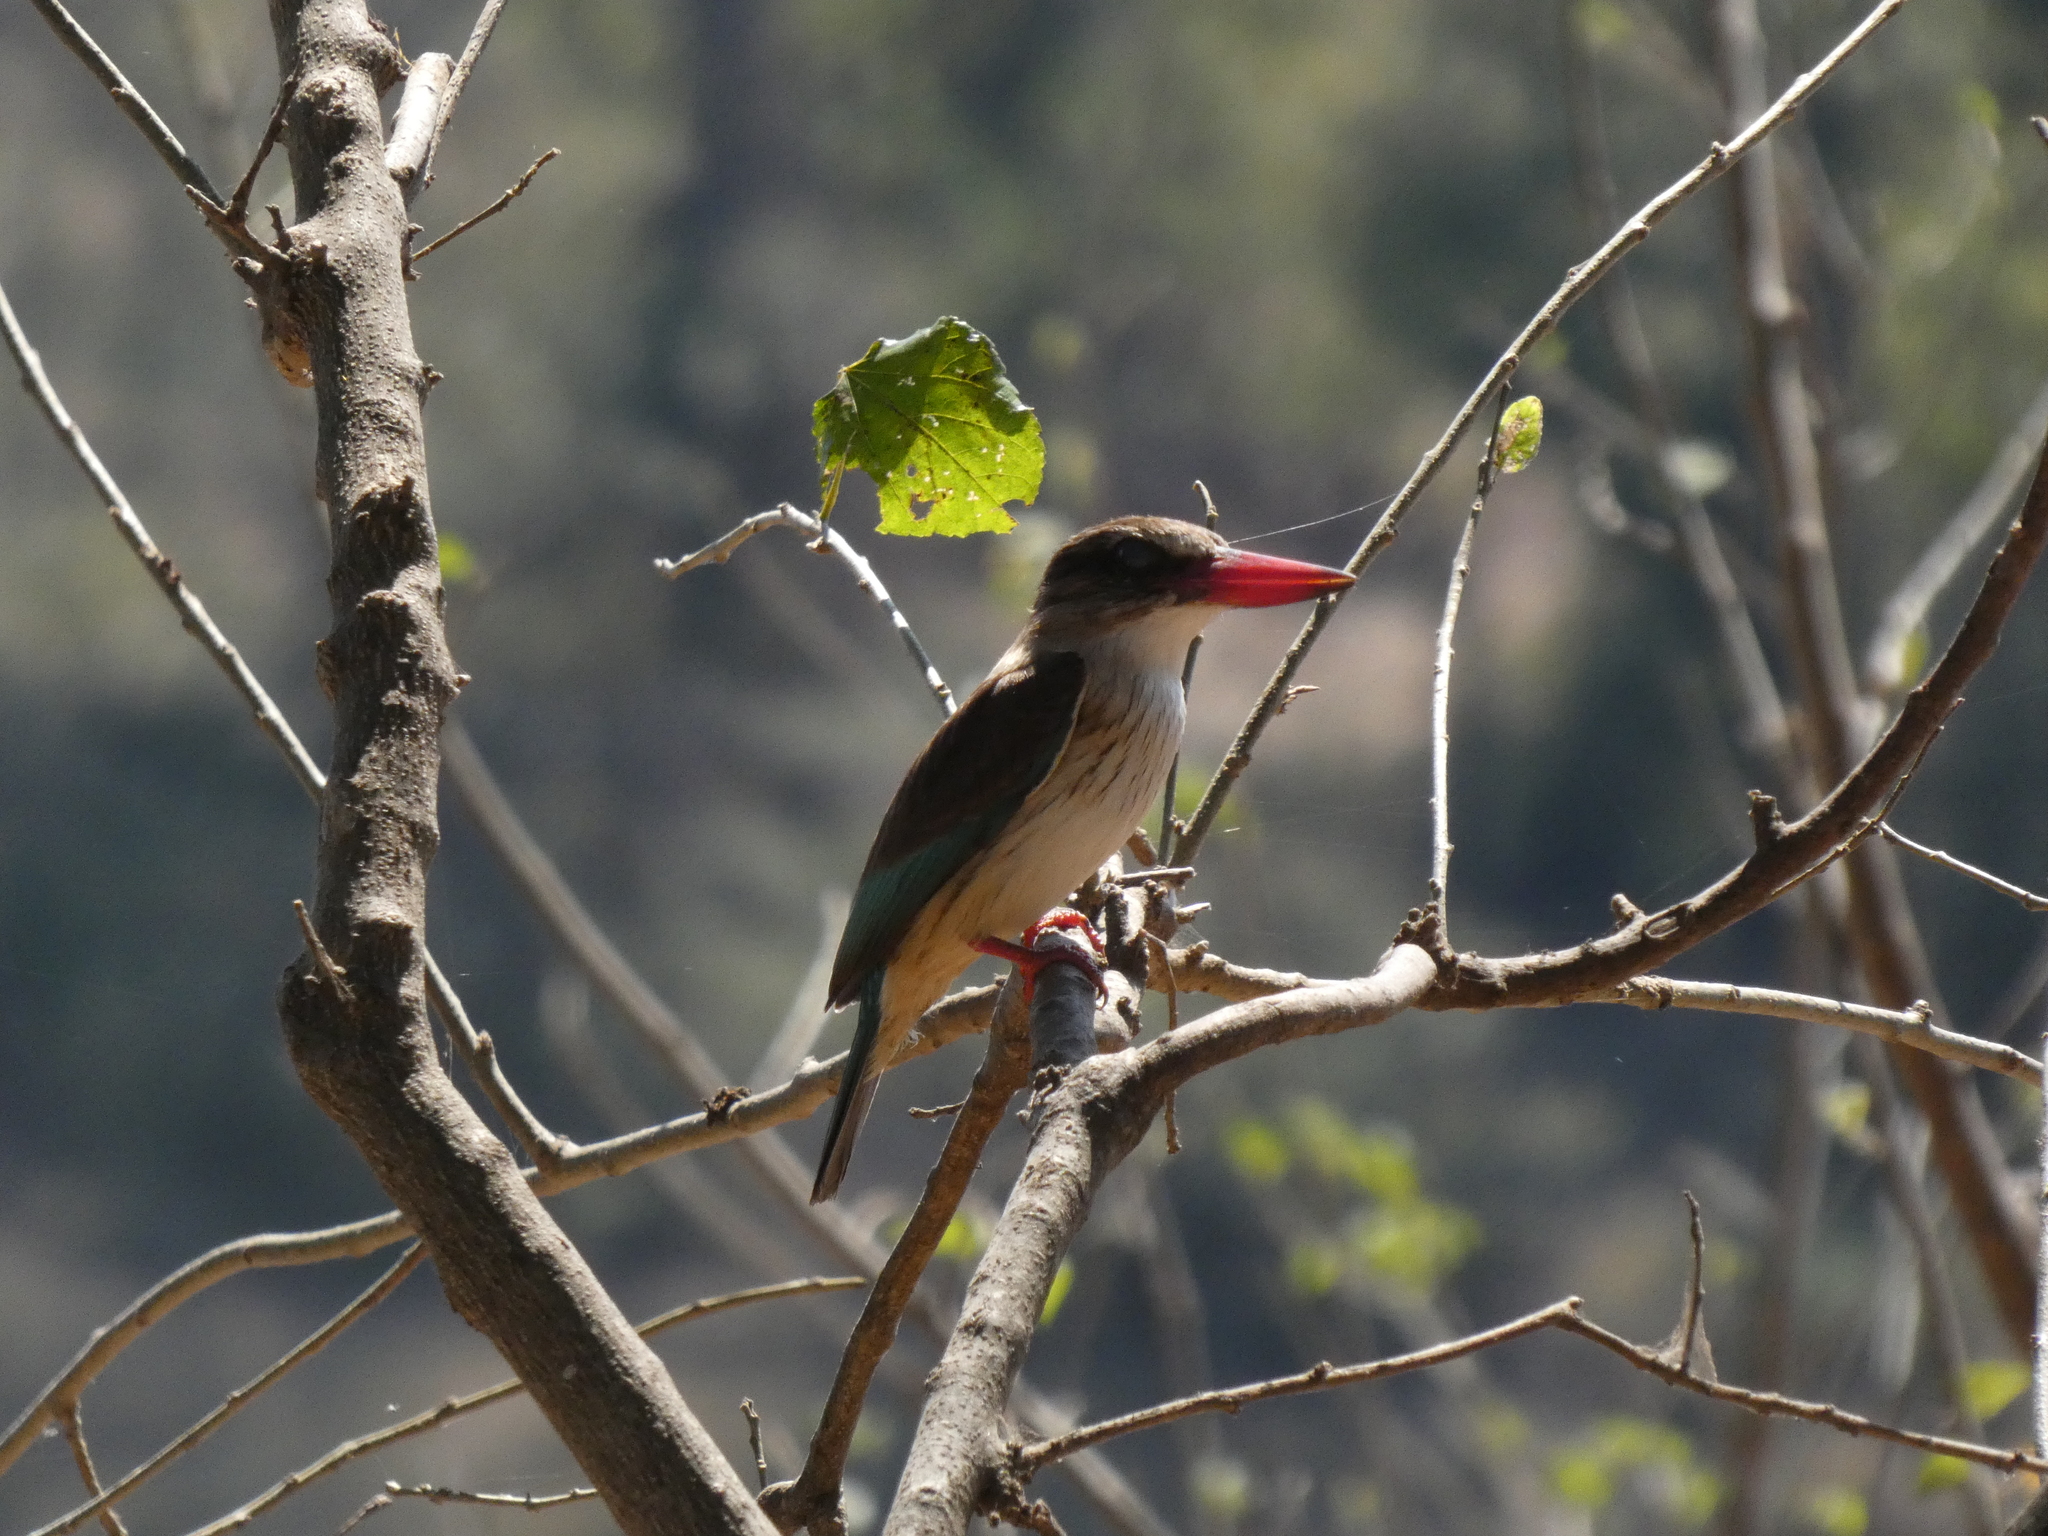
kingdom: Animalia
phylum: Chordata
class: Aves
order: Coraciiformes
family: Alcedinidae
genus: Halcyon
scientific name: Halcyon albiventris
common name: Brown-hooded kingfisher
